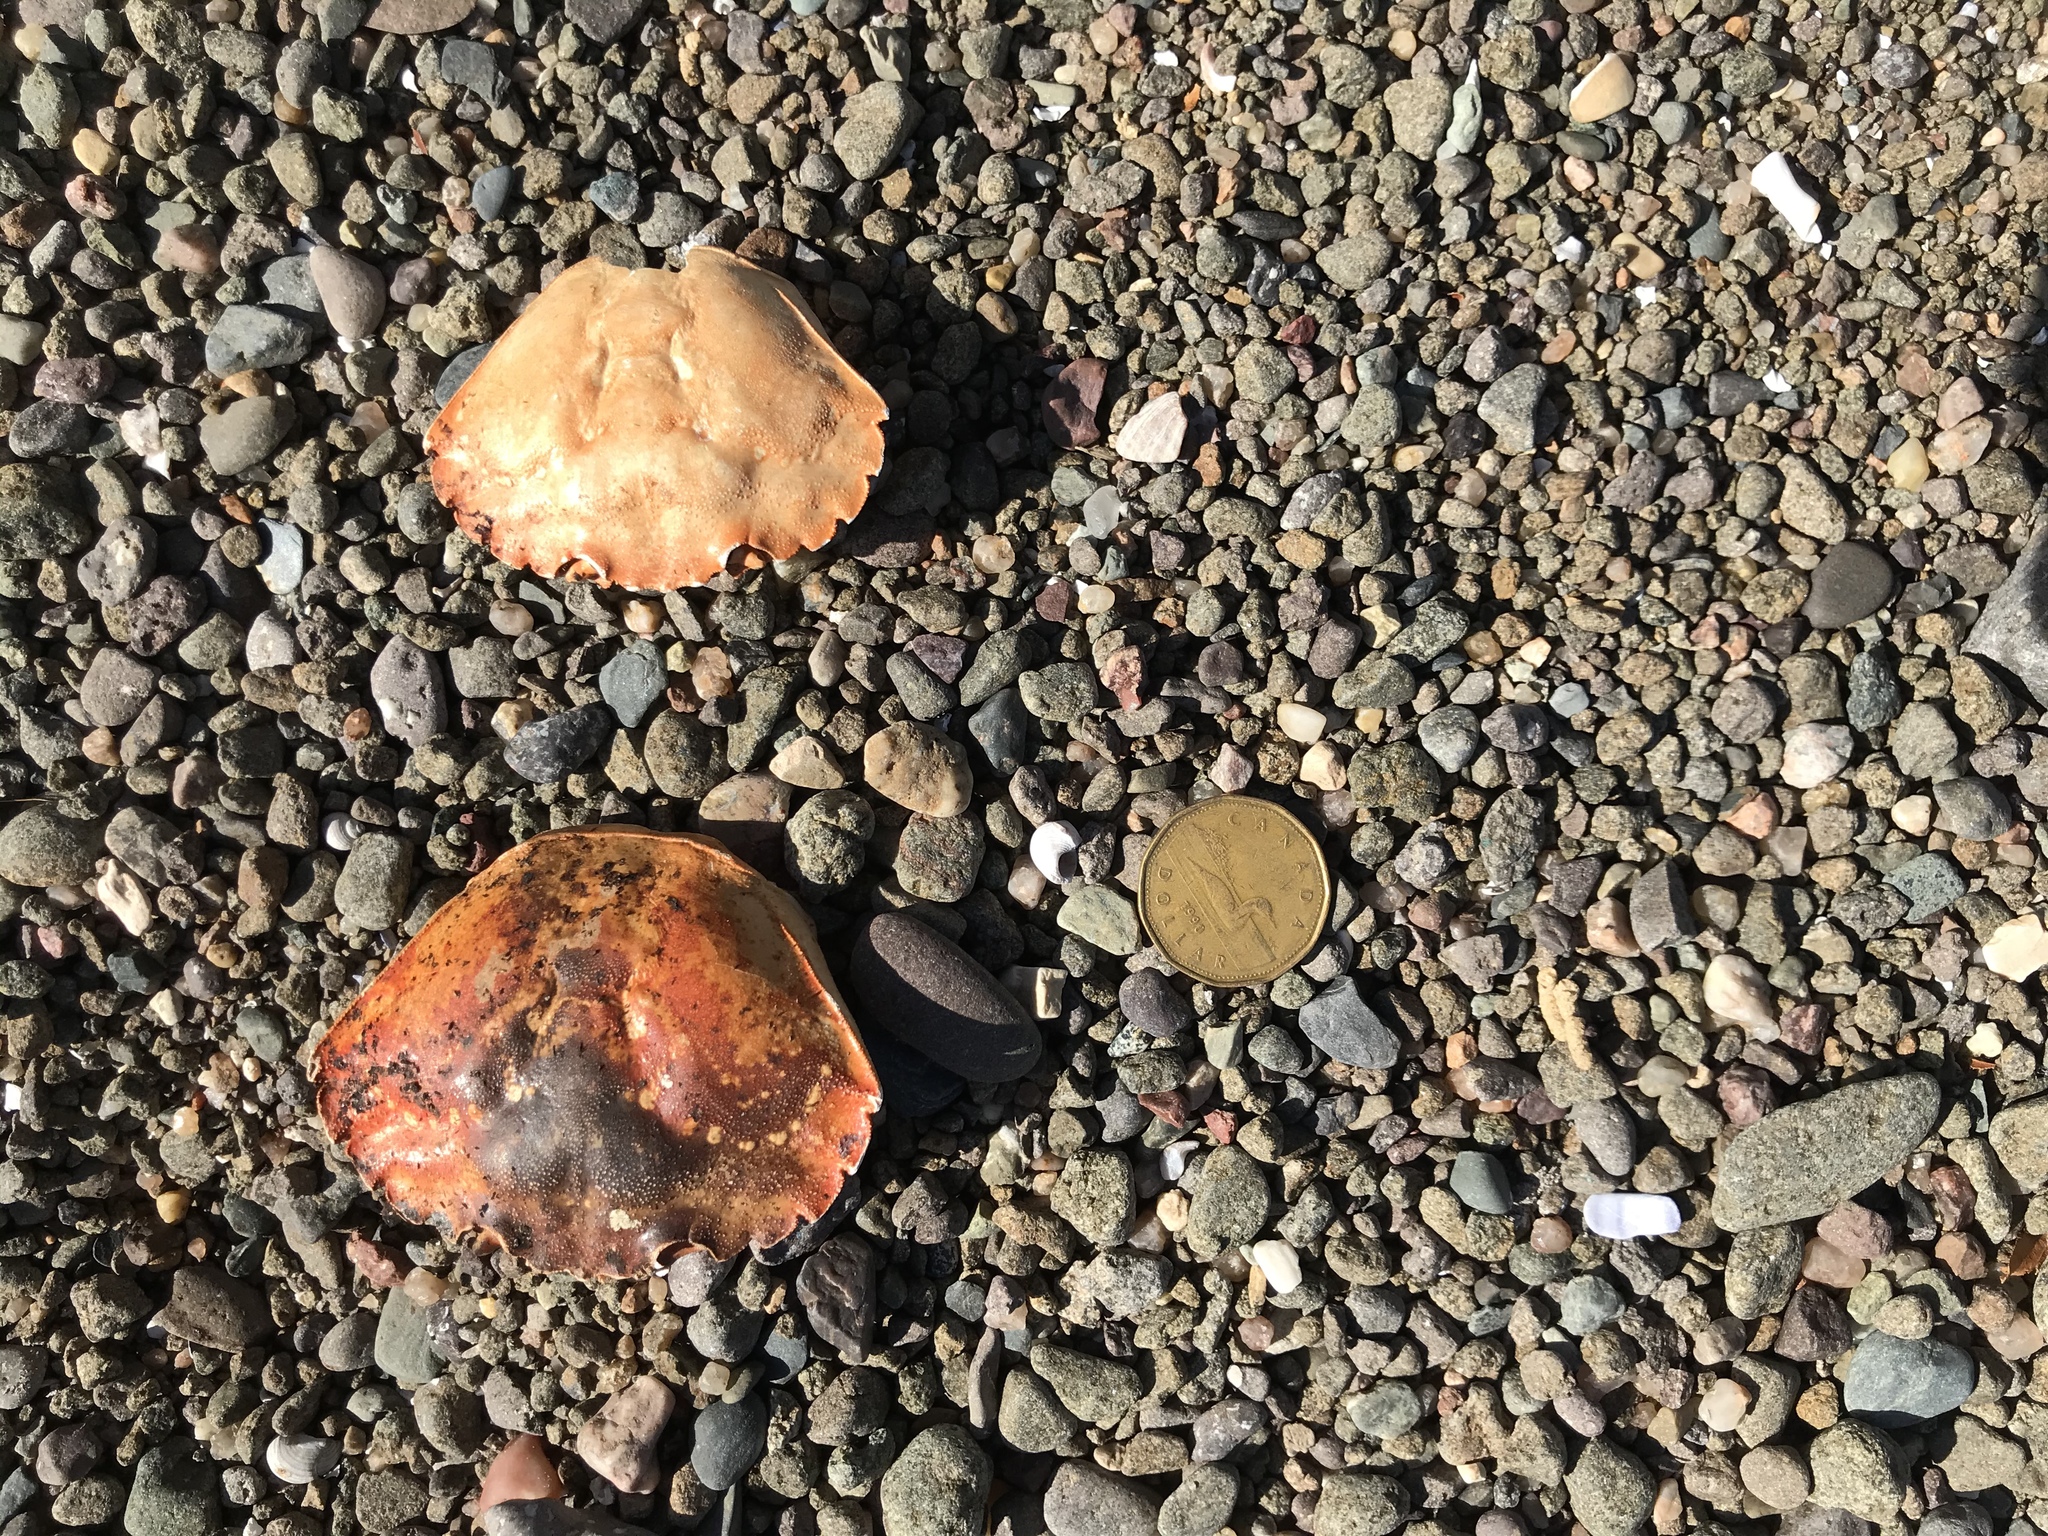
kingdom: Animalia
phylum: Arthropoda
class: Malacostraca
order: Decapoda
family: Carcinidae
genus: Carcinus
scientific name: Carcinus maenas
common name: European green crab
